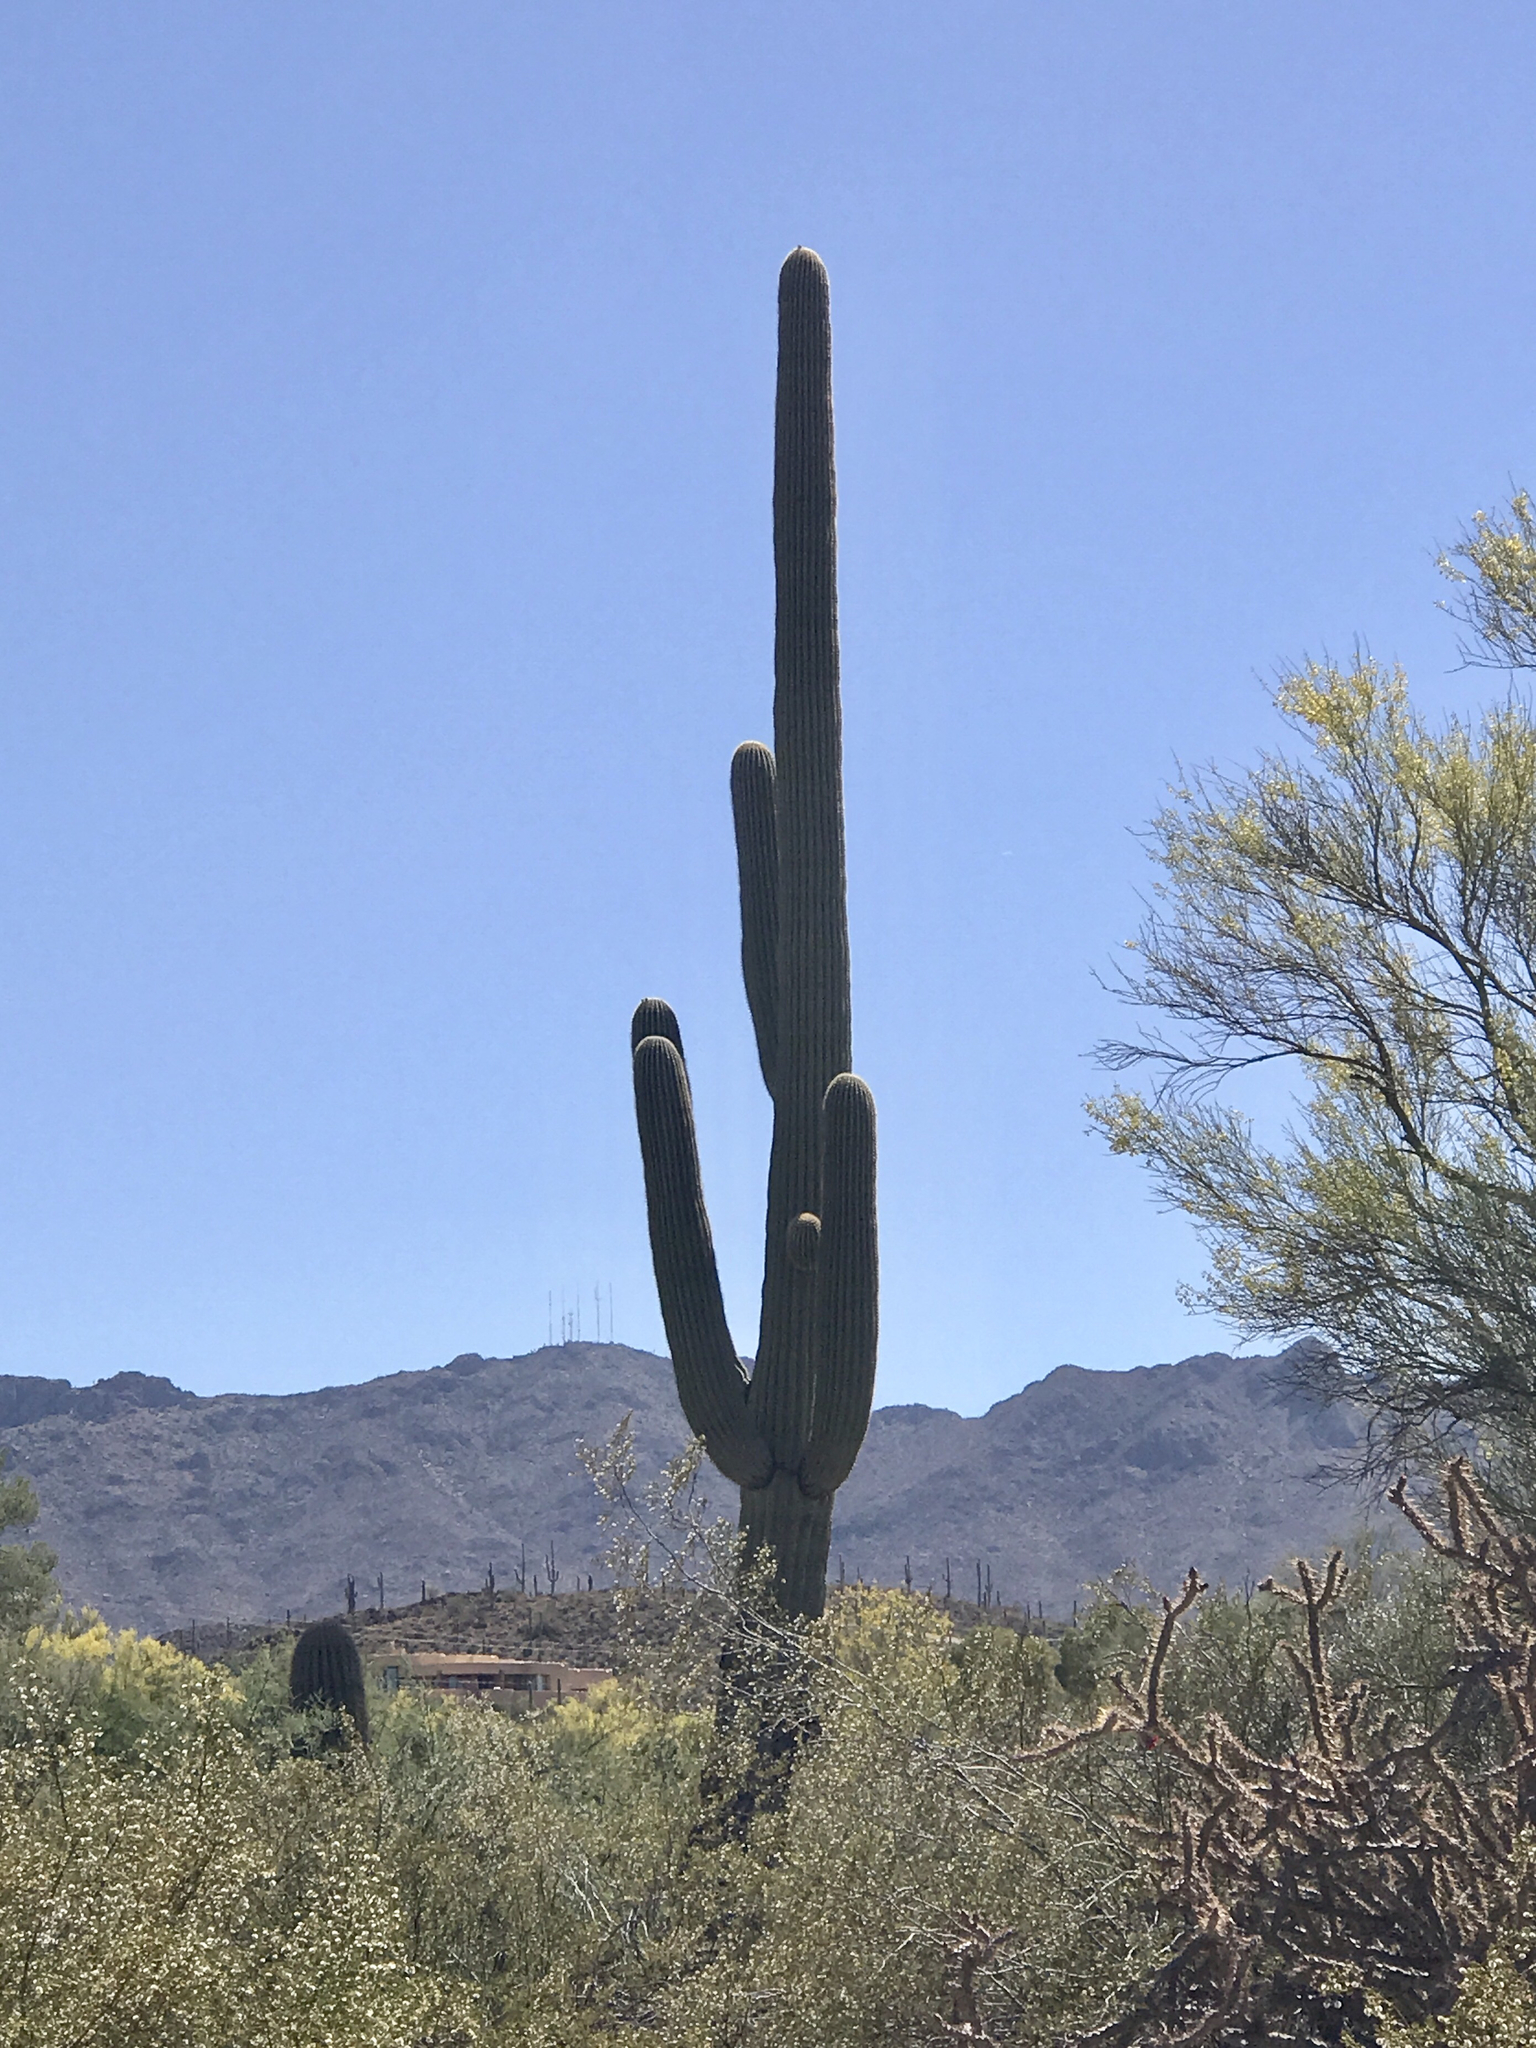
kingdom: Plantae
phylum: Tracheophyta
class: Magnoliopsida
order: Caryophyllales
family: Cactaceae
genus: Carnegiea
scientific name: Carnegiea gigantea
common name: Saguaro
